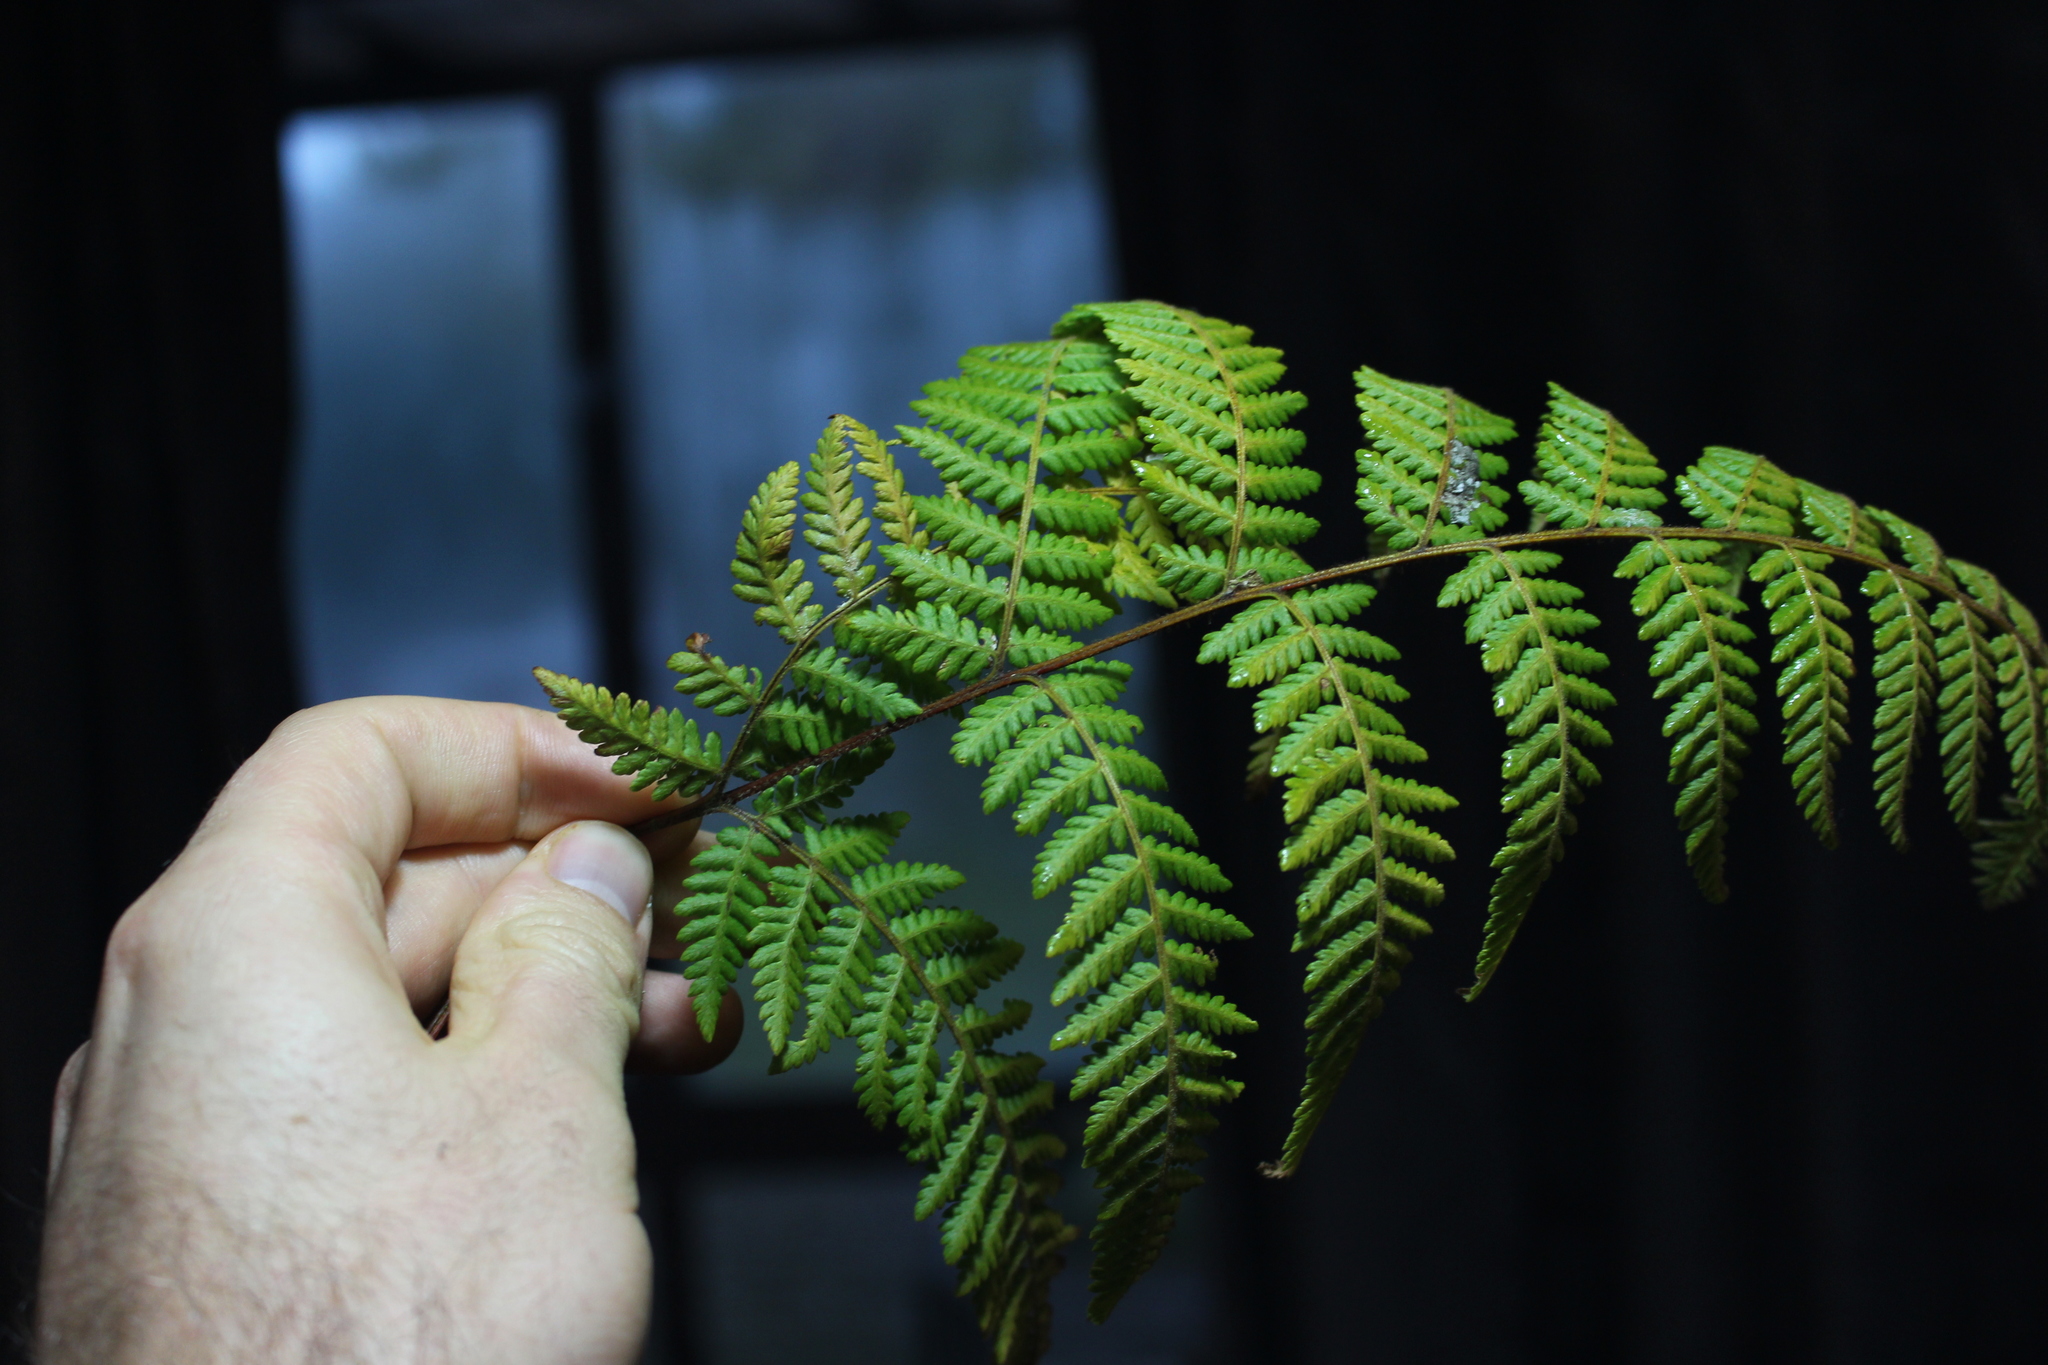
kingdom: Plantae
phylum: Tracheophyta
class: Polypodiopsida
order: Polypodiales
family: Dennstaedtiaceae
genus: Hypolepis
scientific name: Hypolepis ambigua
